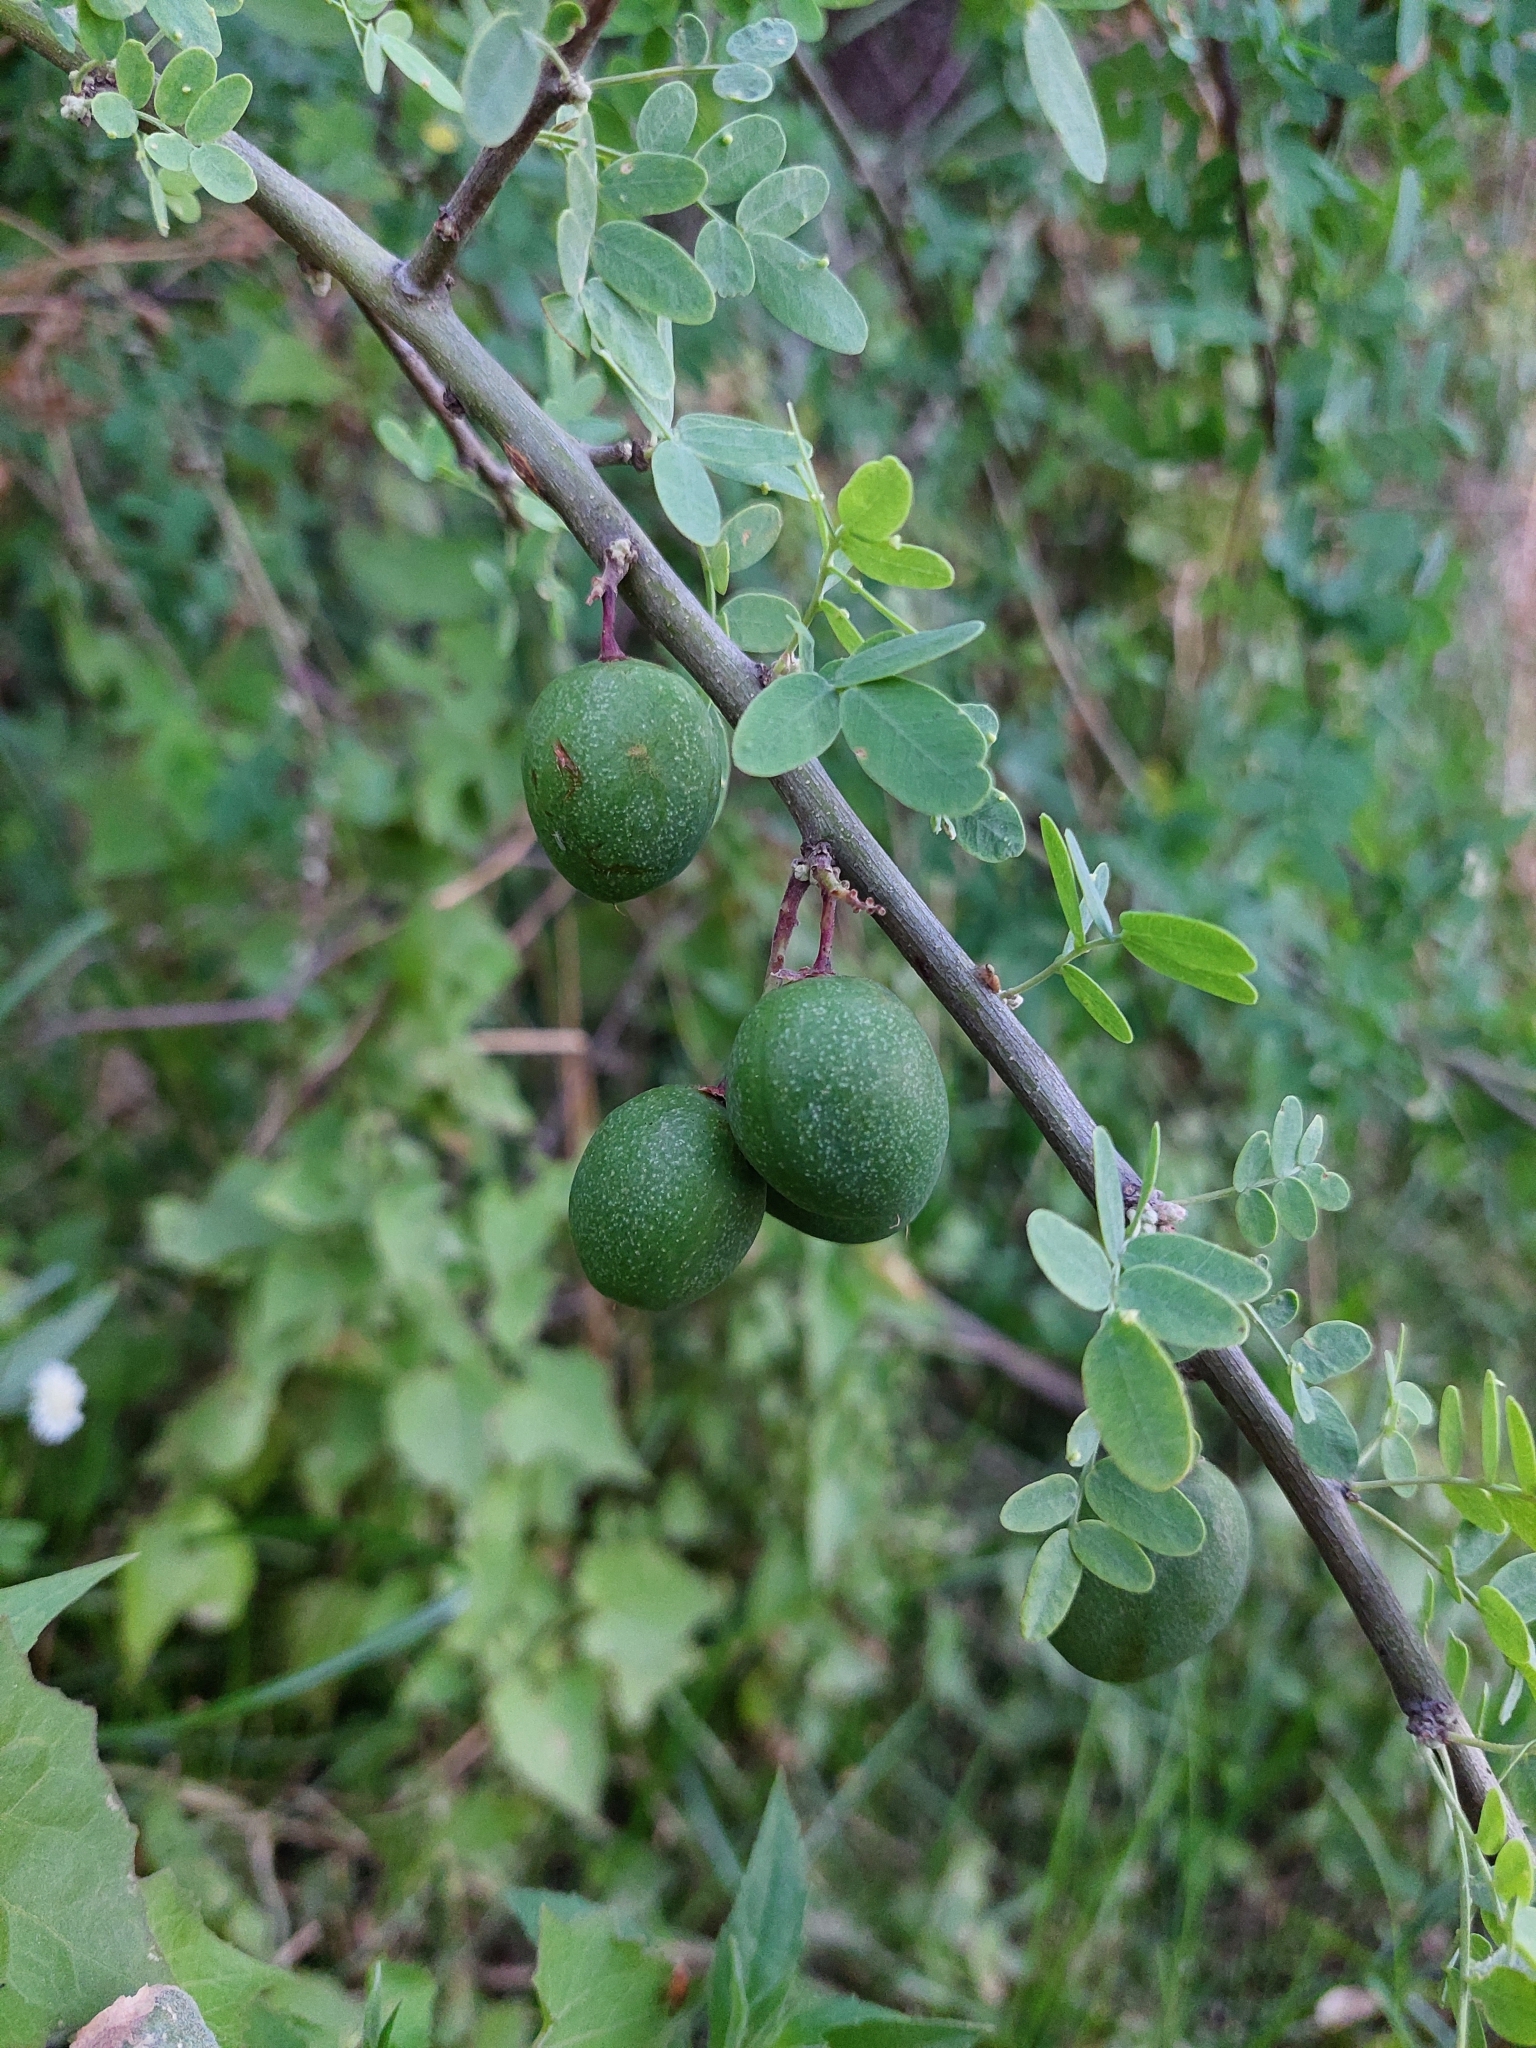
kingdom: Plantae
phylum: Tracheophyta
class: Magnoliopsida
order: Fabales
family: Fabaceae
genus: Geoffroea
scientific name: Geoffroea decorticans
